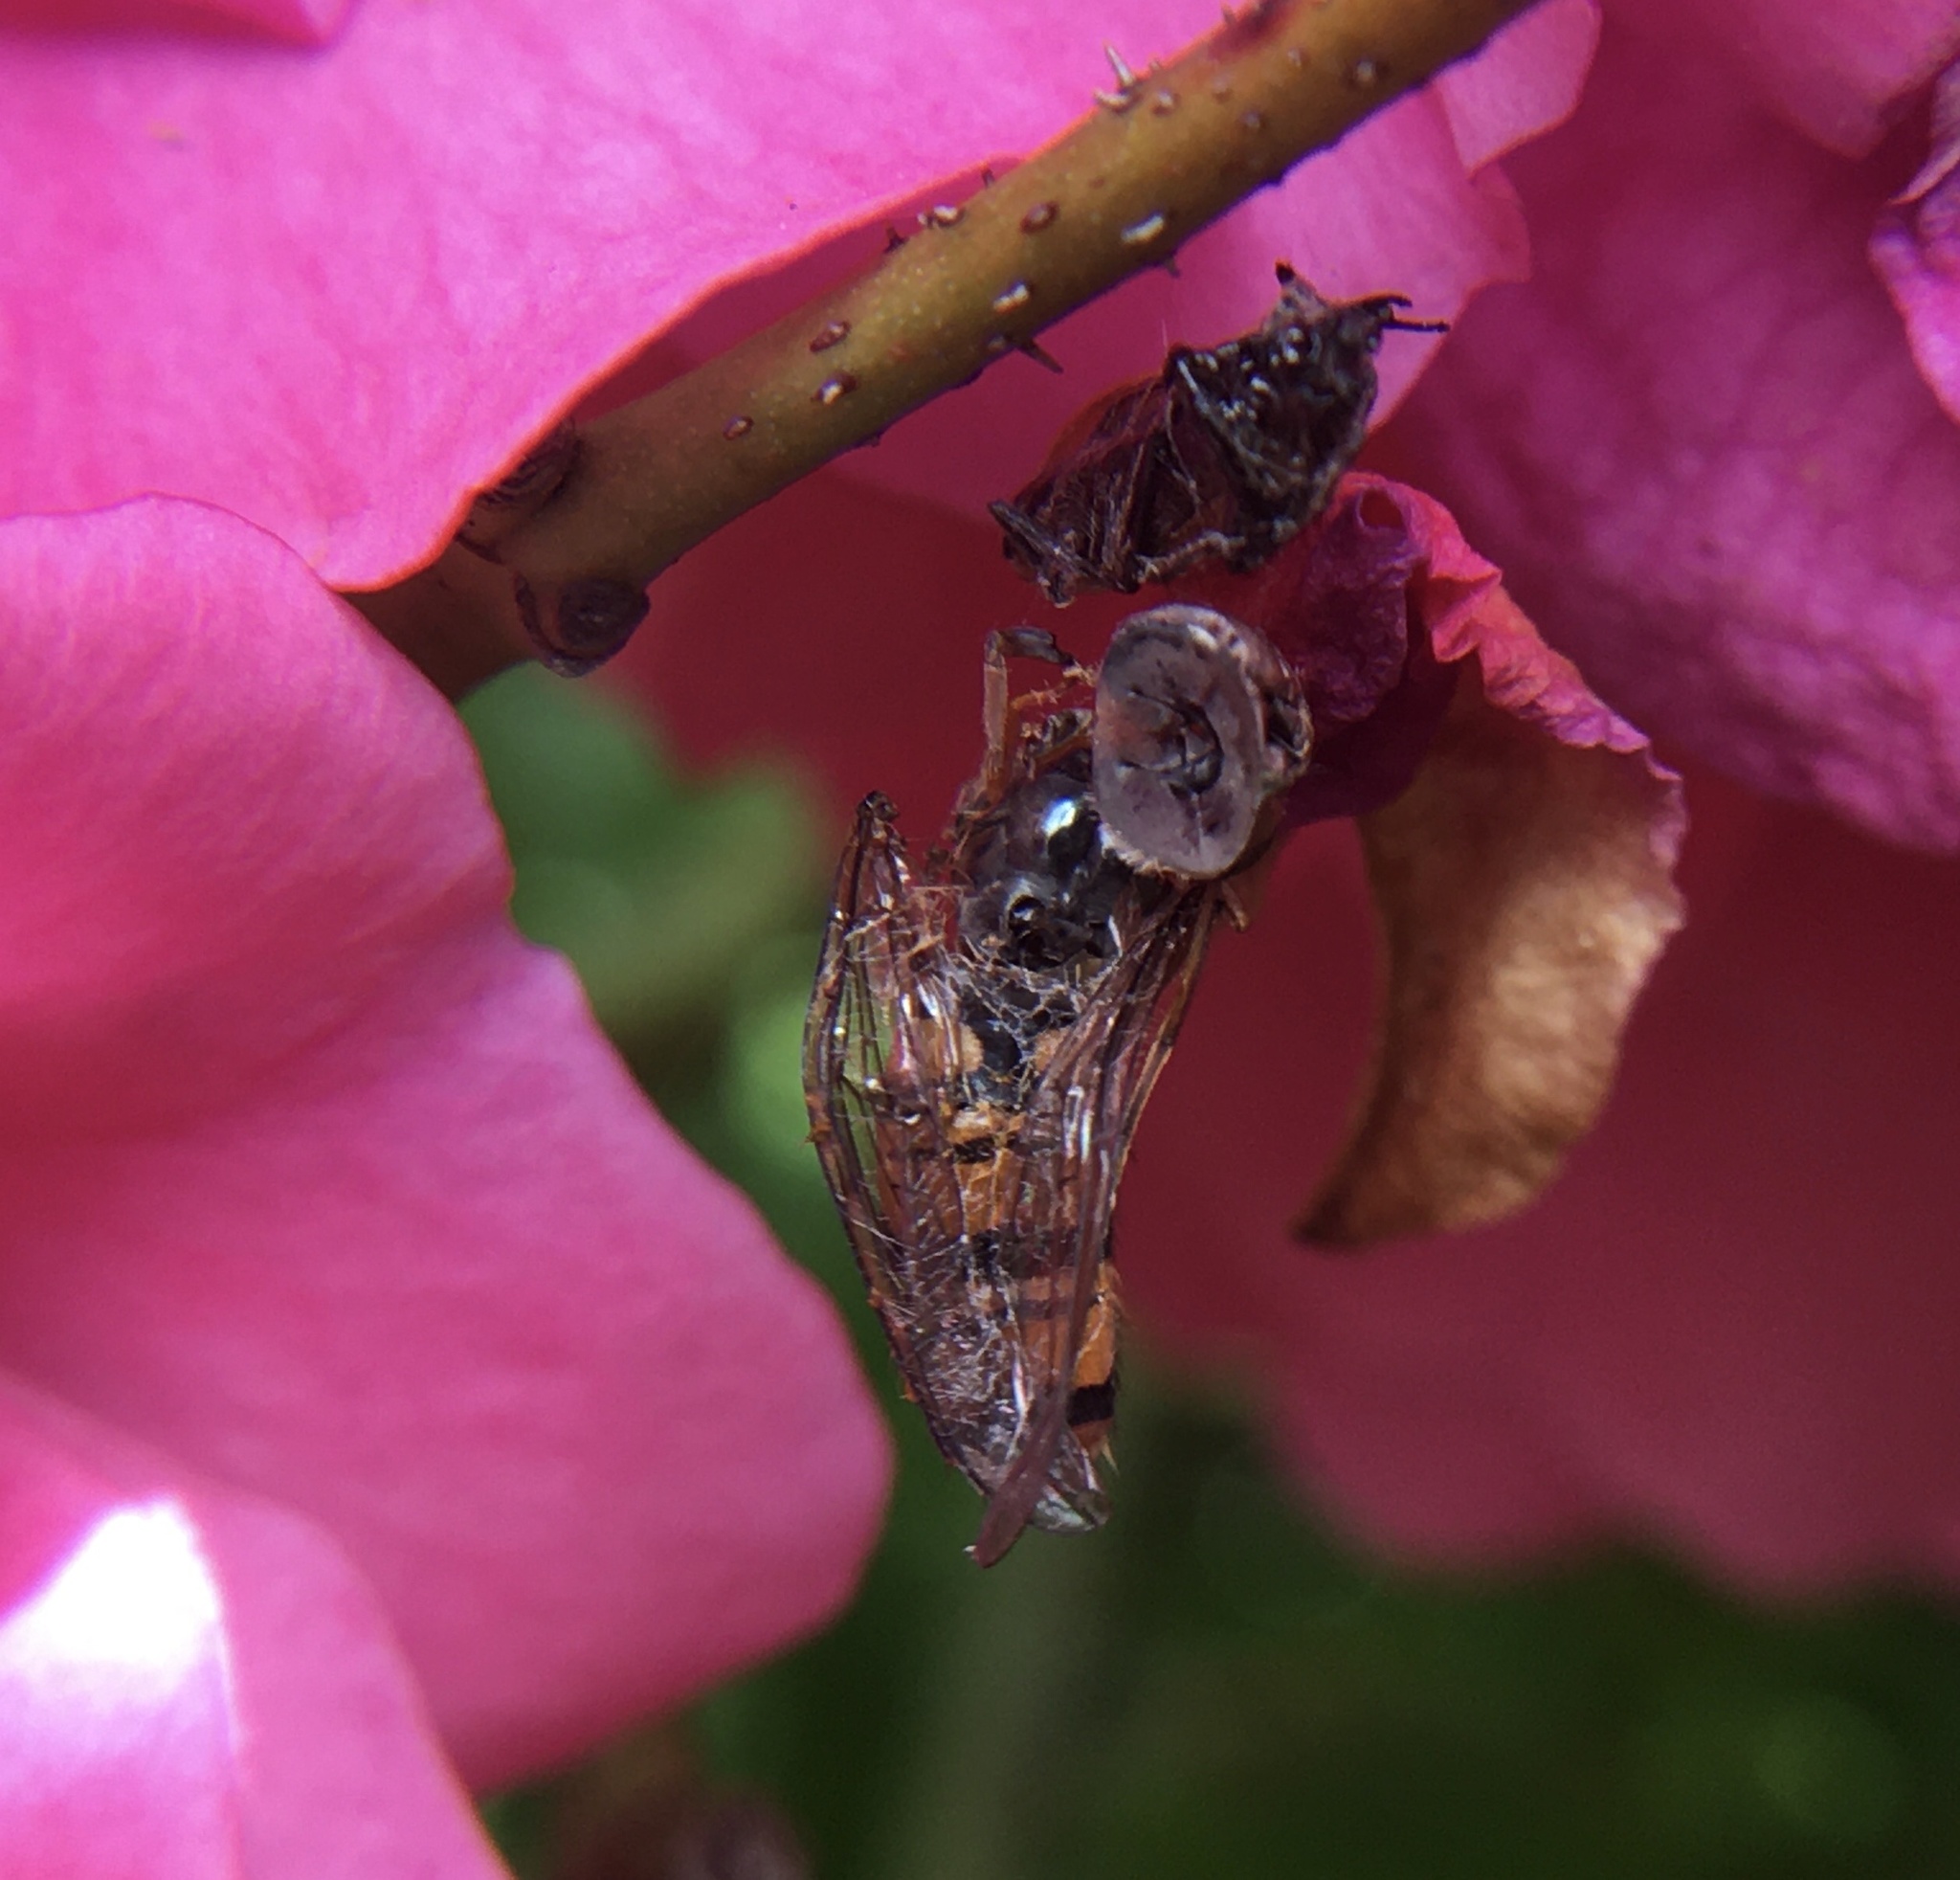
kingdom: Animalia
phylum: Arthropoda
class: Insecta
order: Diptera
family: Syrphidae
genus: Episyrphus
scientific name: Episyrphus balteatus
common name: Marmalade hoverfly
